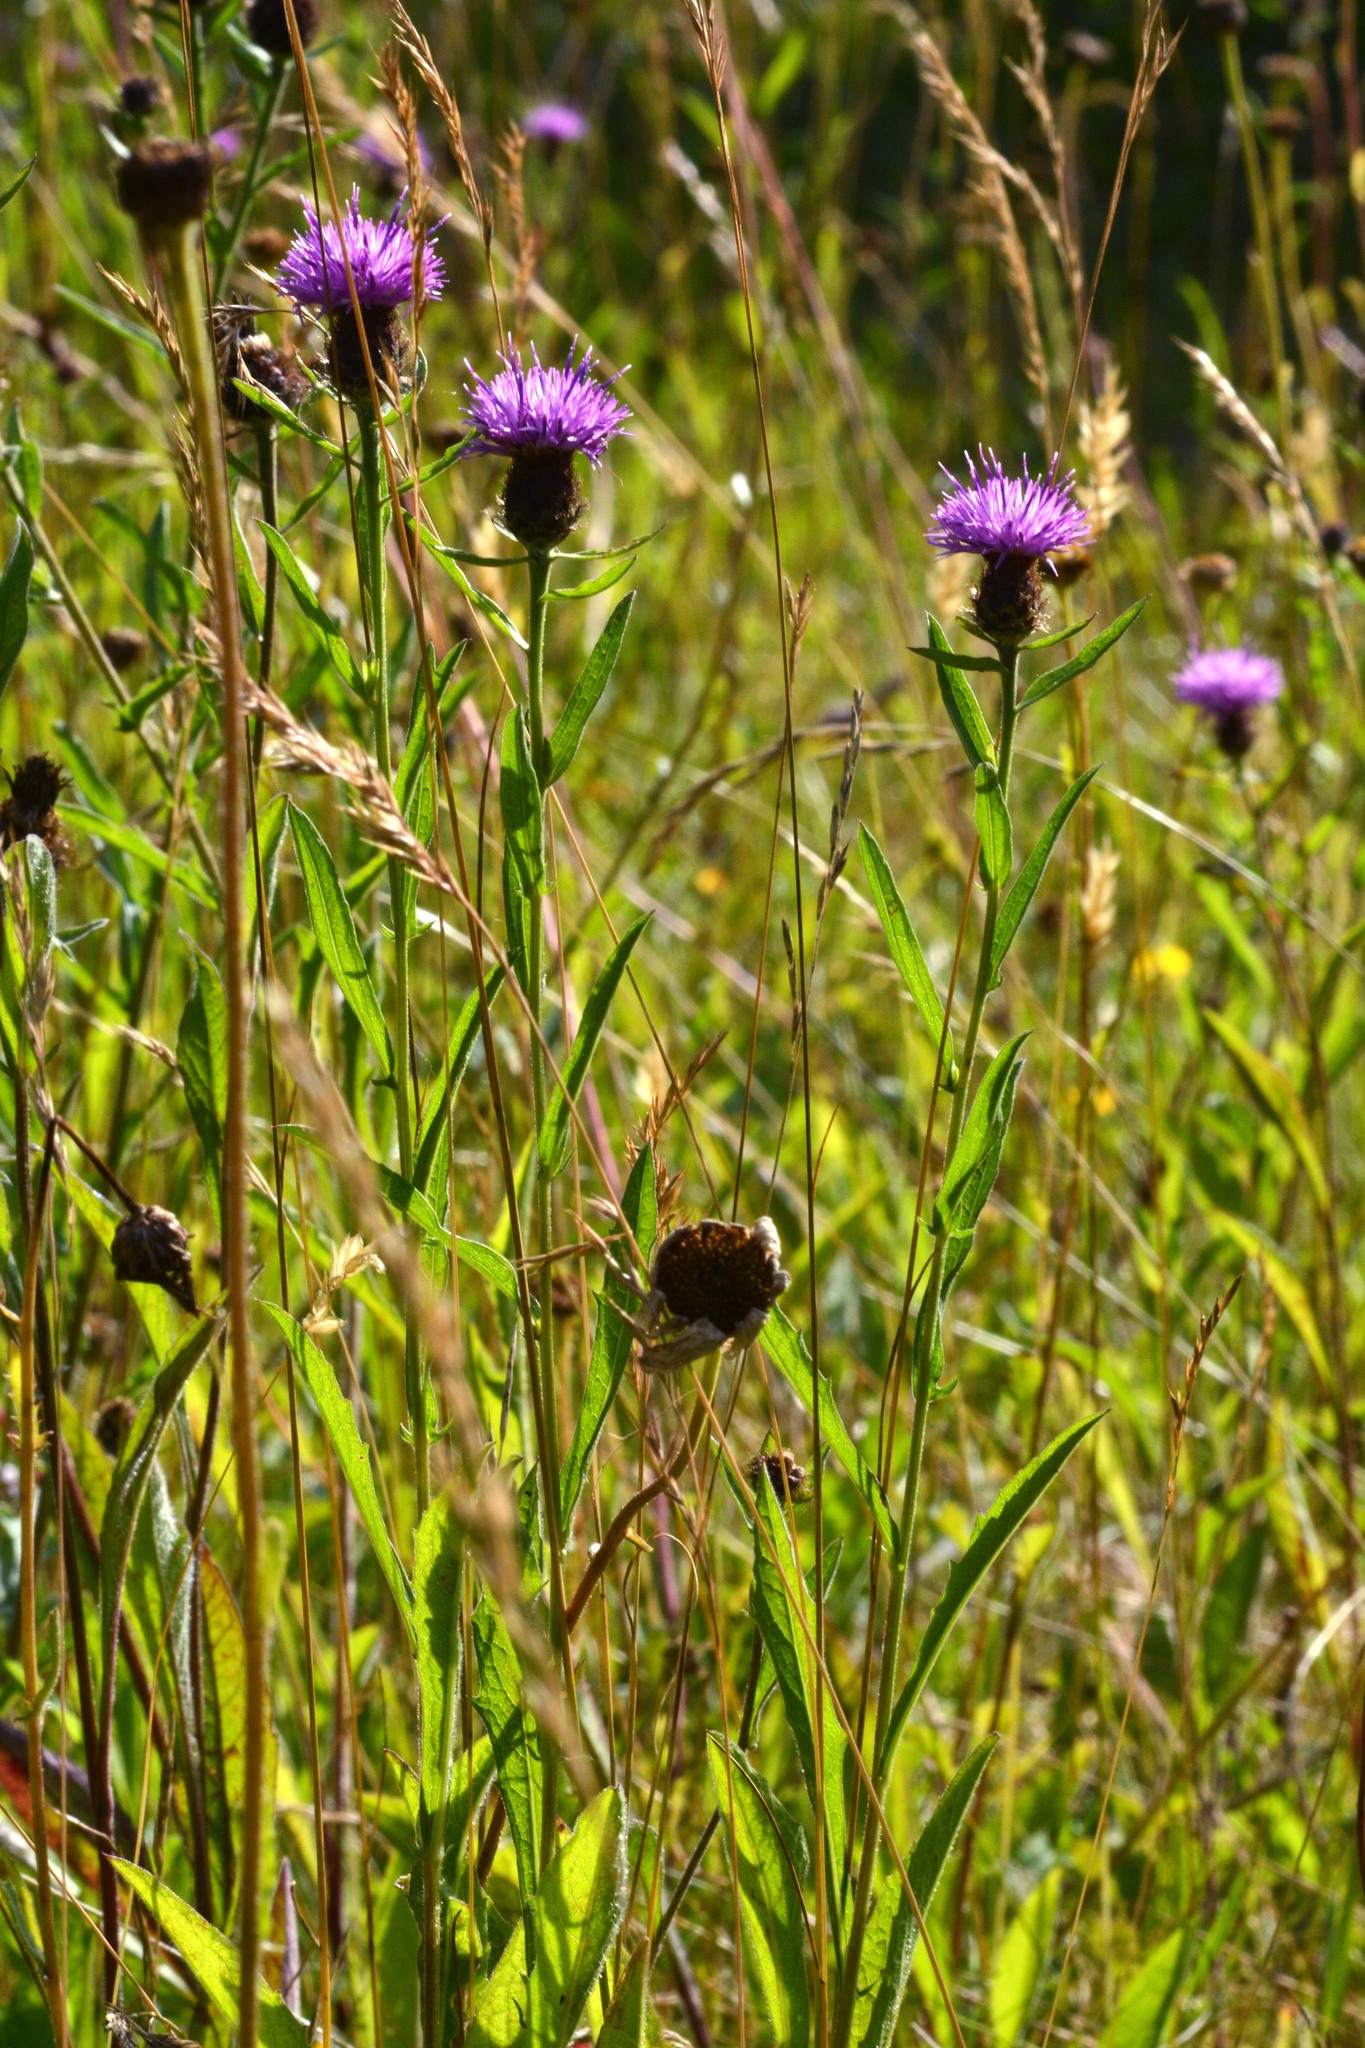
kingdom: Plantae
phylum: Tracheophyta
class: Magnoliopsida
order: Asterales
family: Asteraceae
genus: Centaurea
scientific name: Centaurea nigra
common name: Lesser knapweed
